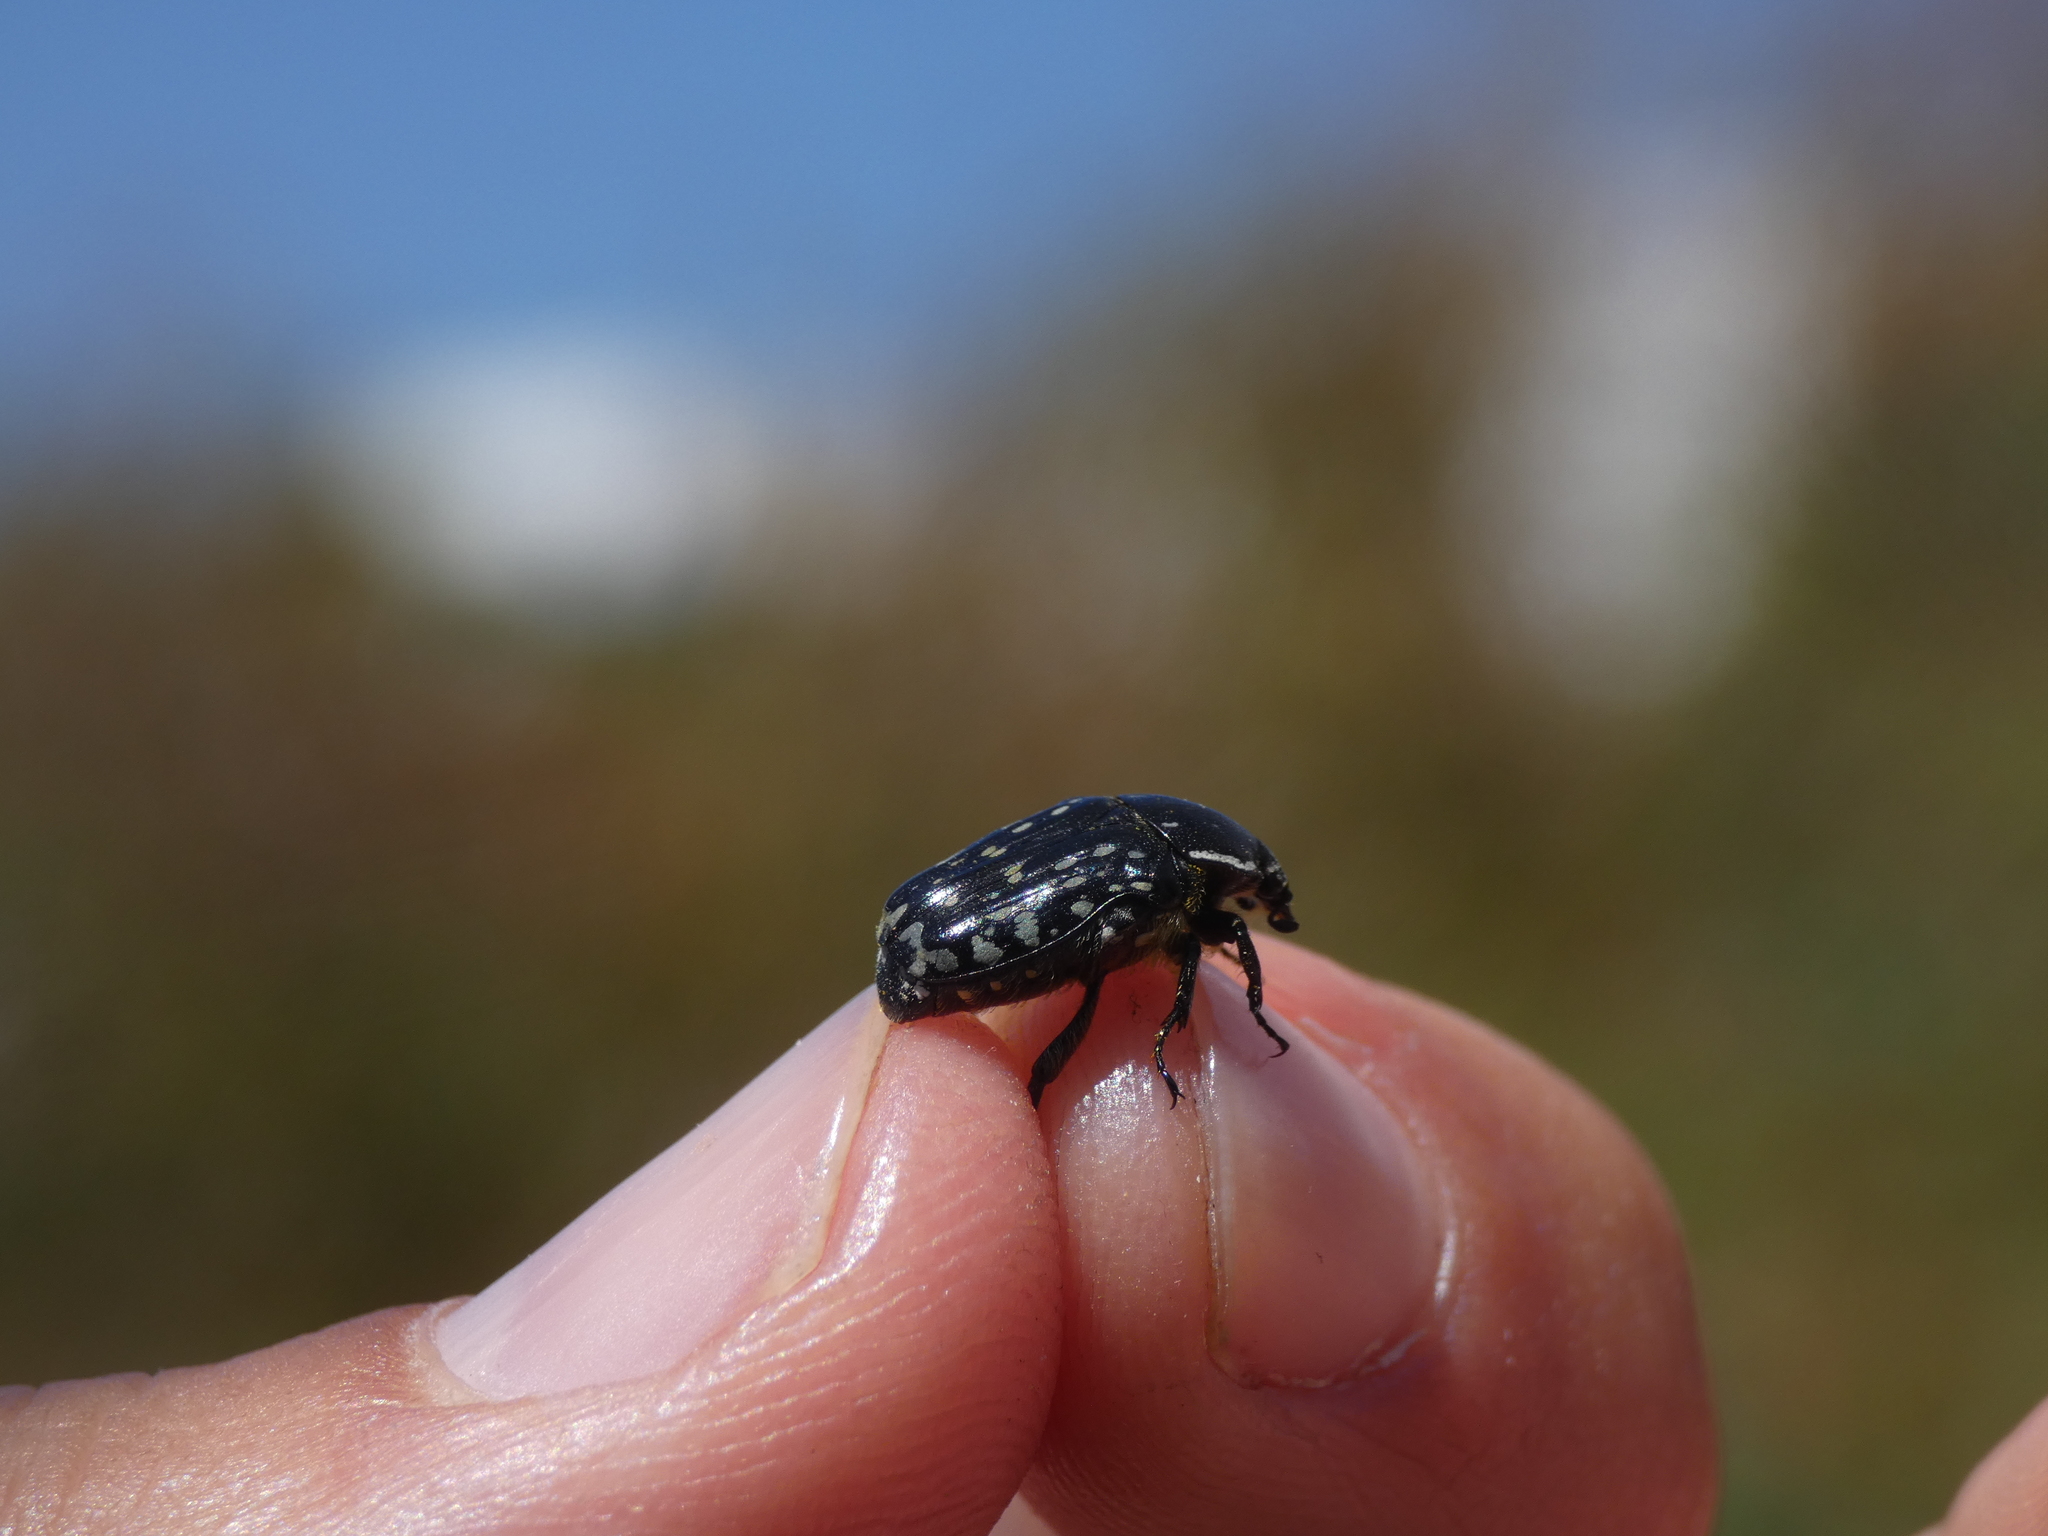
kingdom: Animalia
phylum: Arthropoda
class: Insecta
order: Coleoptera
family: Scarabaeidae
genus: Oxythyrea
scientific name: Oxythyrea cinctella
